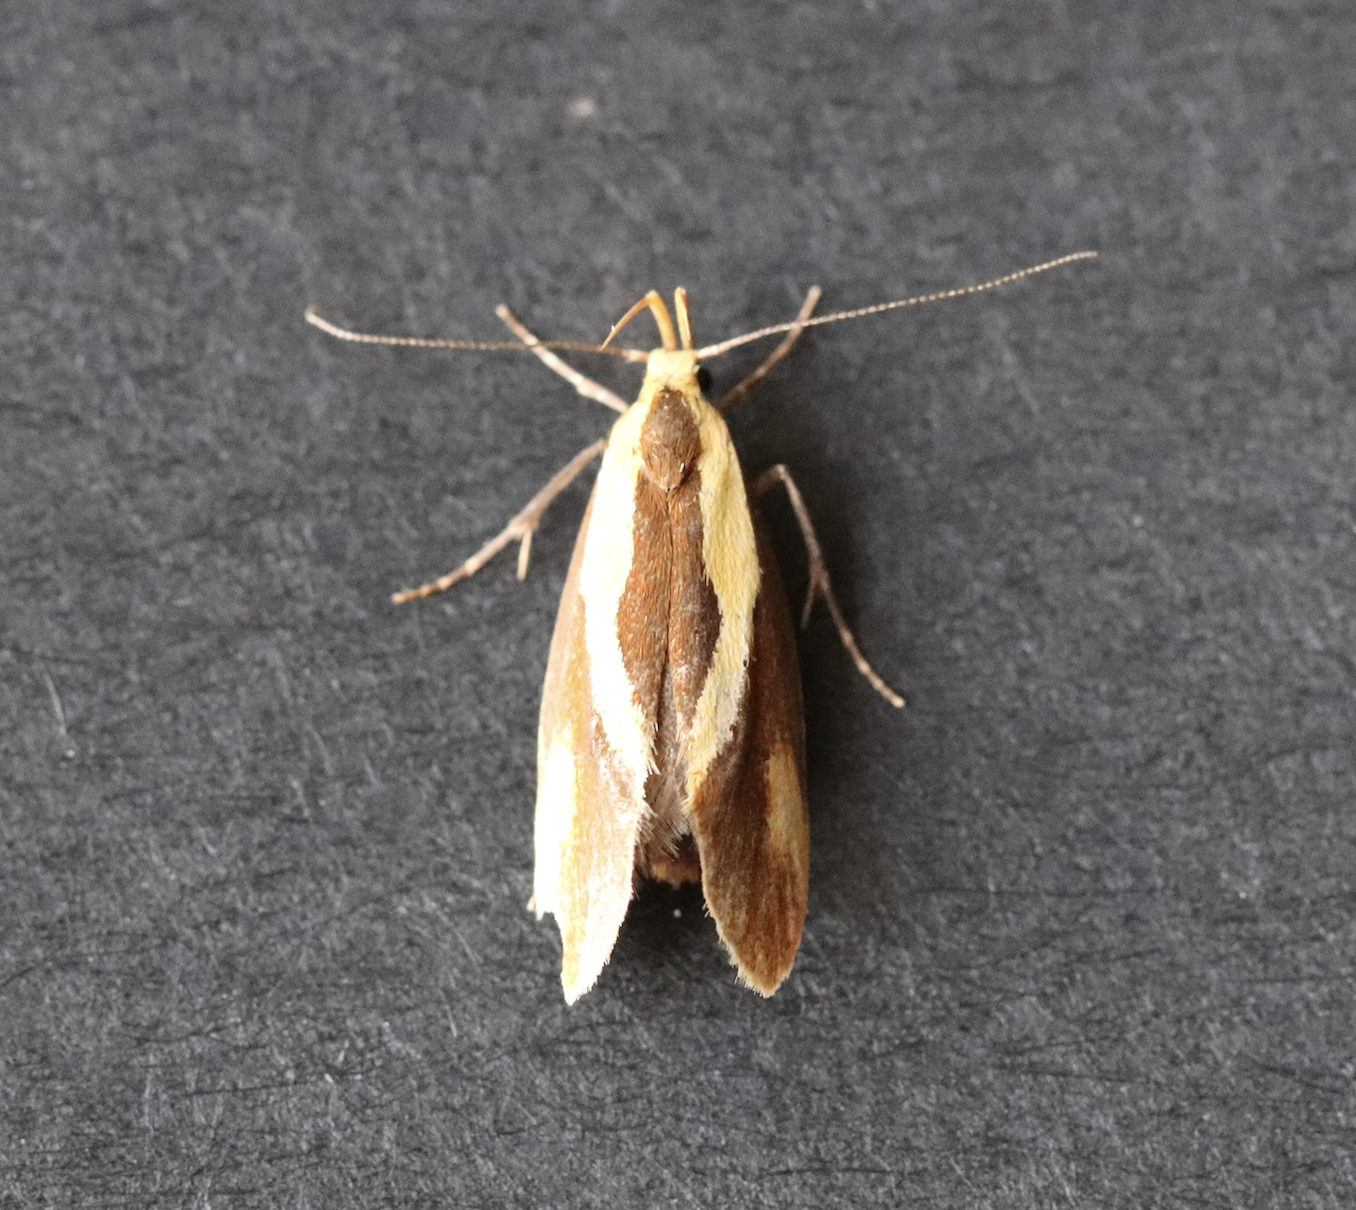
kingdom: Animalia
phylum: Arthropoda
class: Insecta
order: Lepidoptera
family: Oecophoridae
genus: Harpella
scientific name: Harpella forficella
